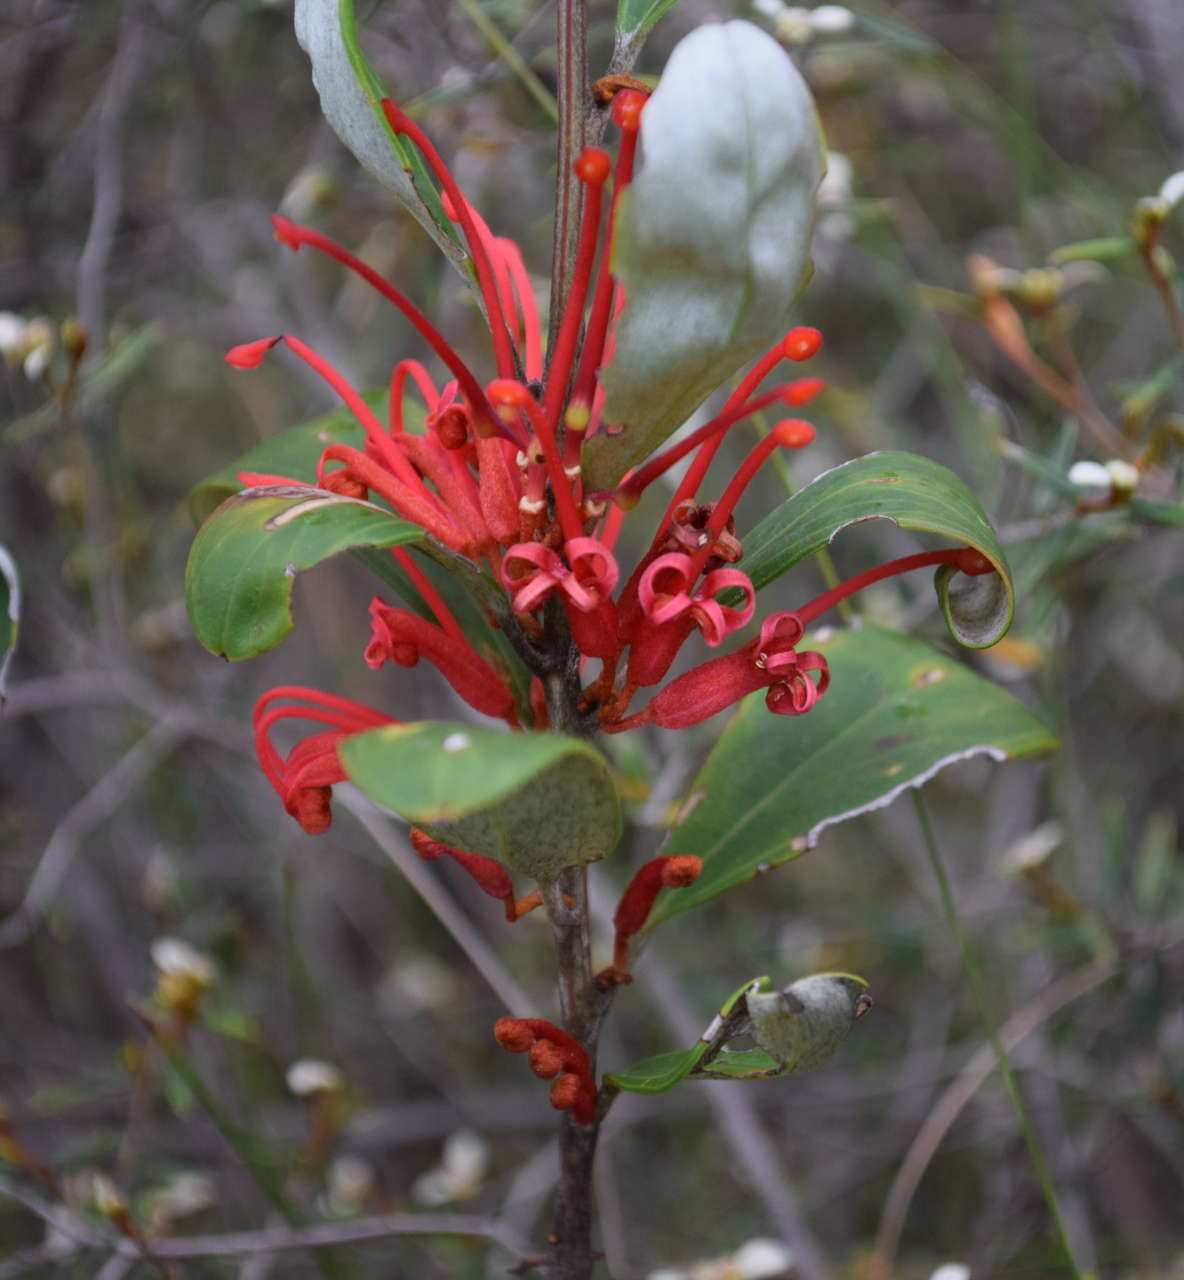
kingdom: Plantae
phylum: Tracheophyta
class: Magnoliopsida
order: Proteales
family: Proteaceae
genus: Grevillea
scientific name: Grevillea dimorpha
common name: Flame grevillea
